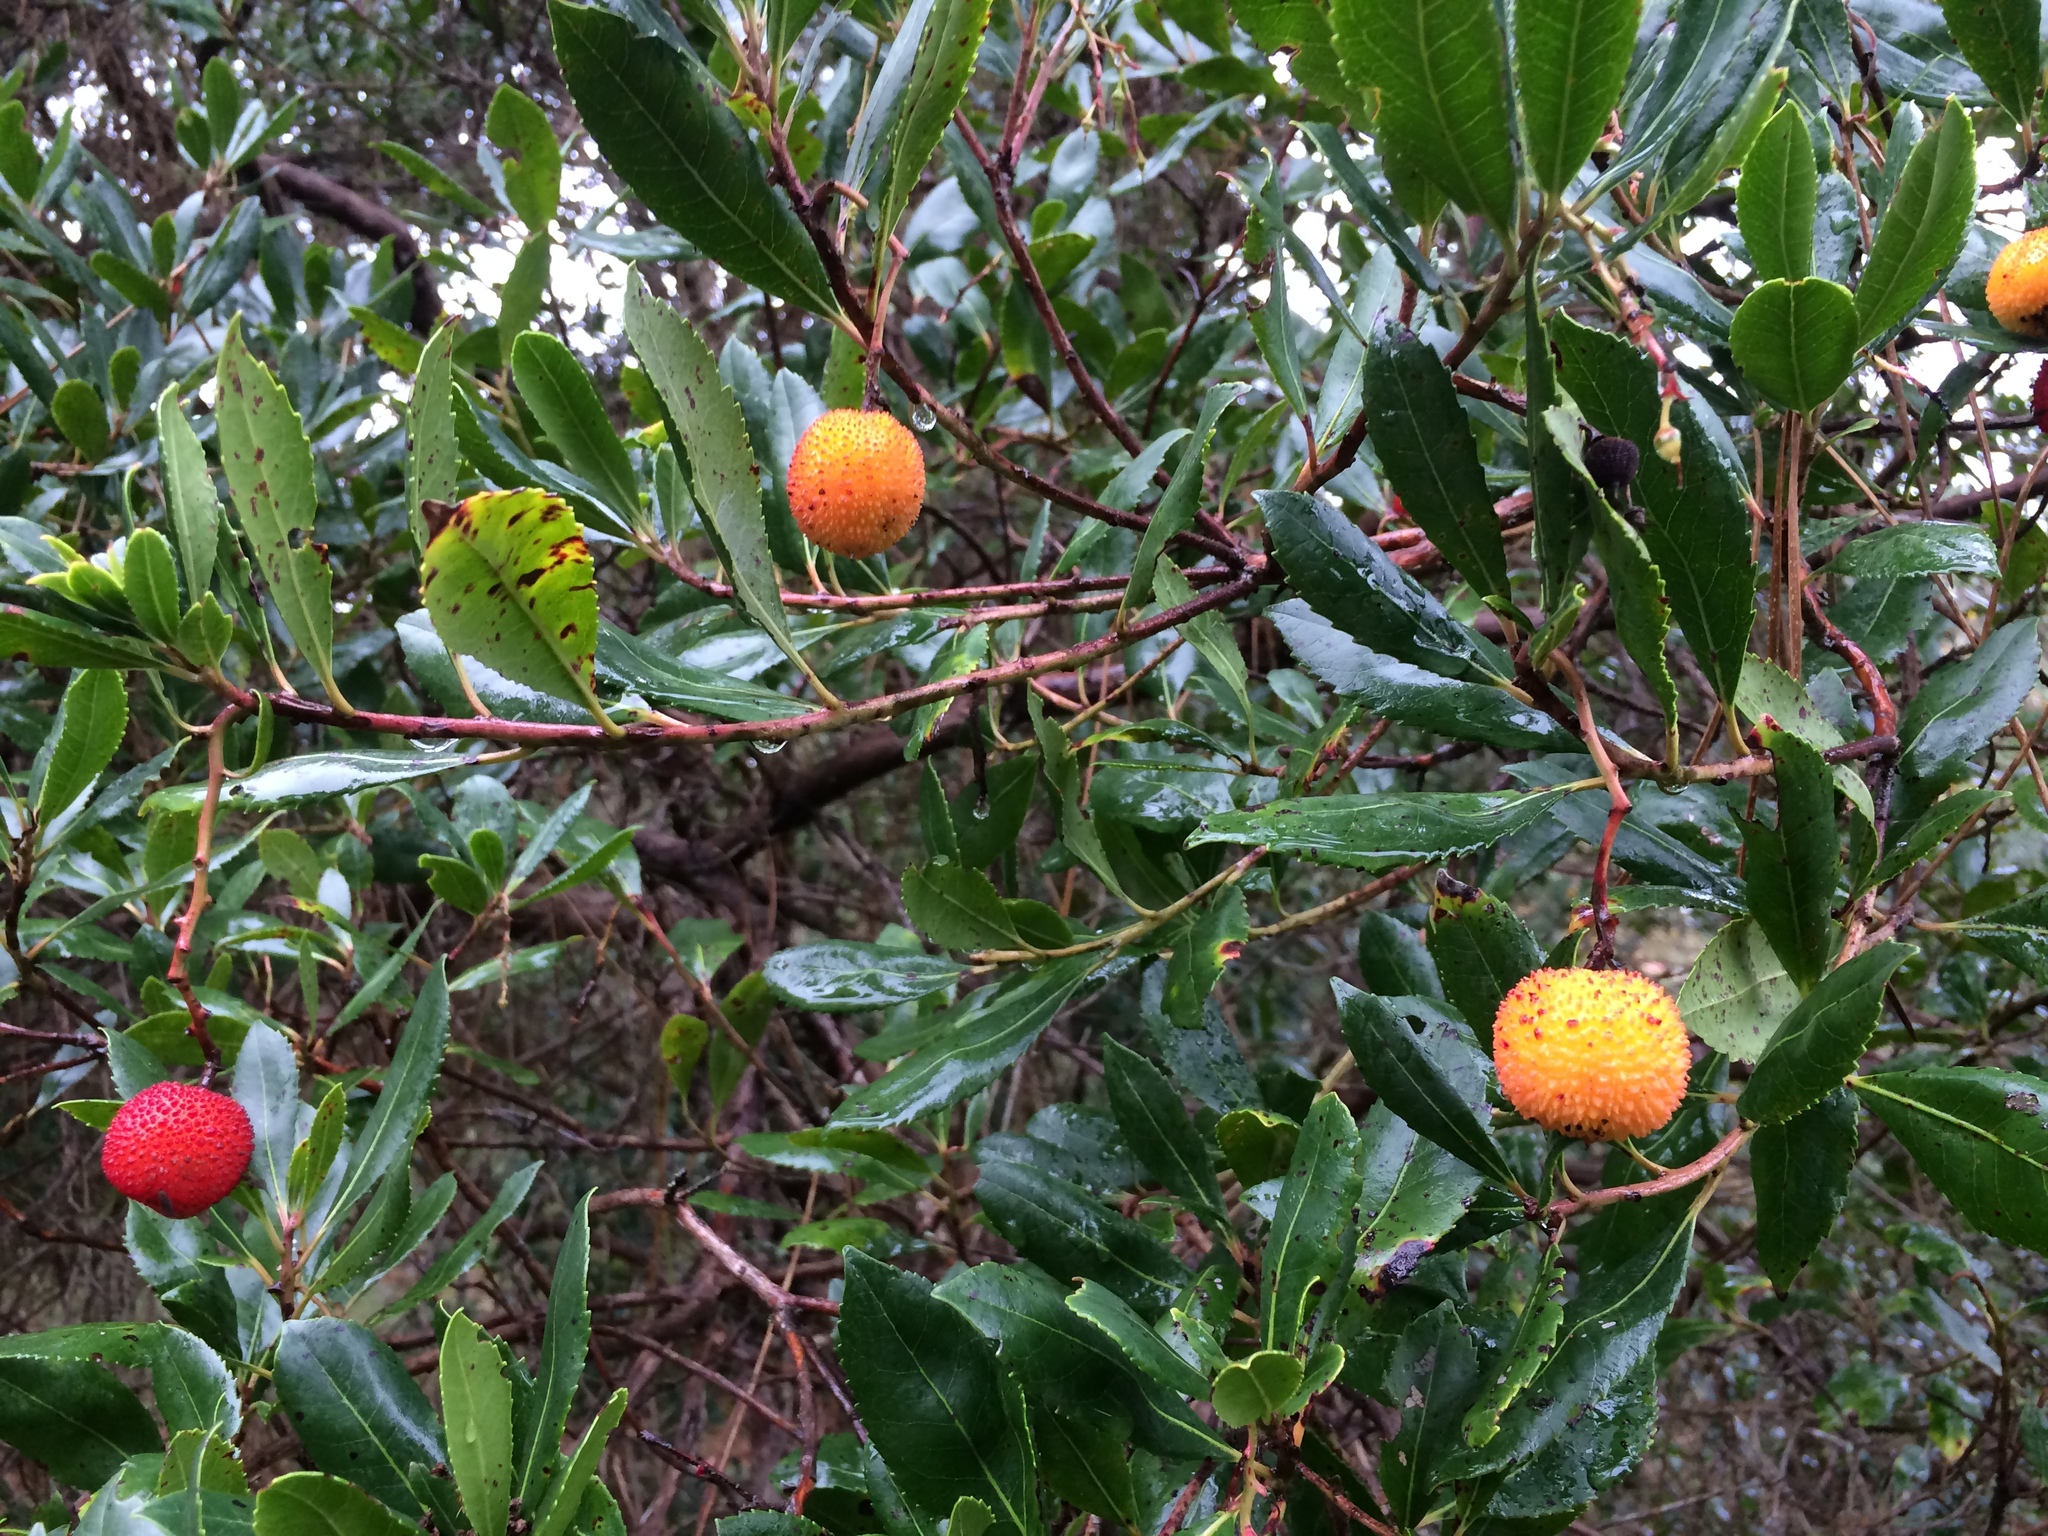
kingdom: Plantae
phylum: Tracheophyta
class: Magnoliopsida
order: Ericales
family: Ericaceae
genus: Arbutus
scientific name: Arbutus unedo
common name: Strawberry-tree
